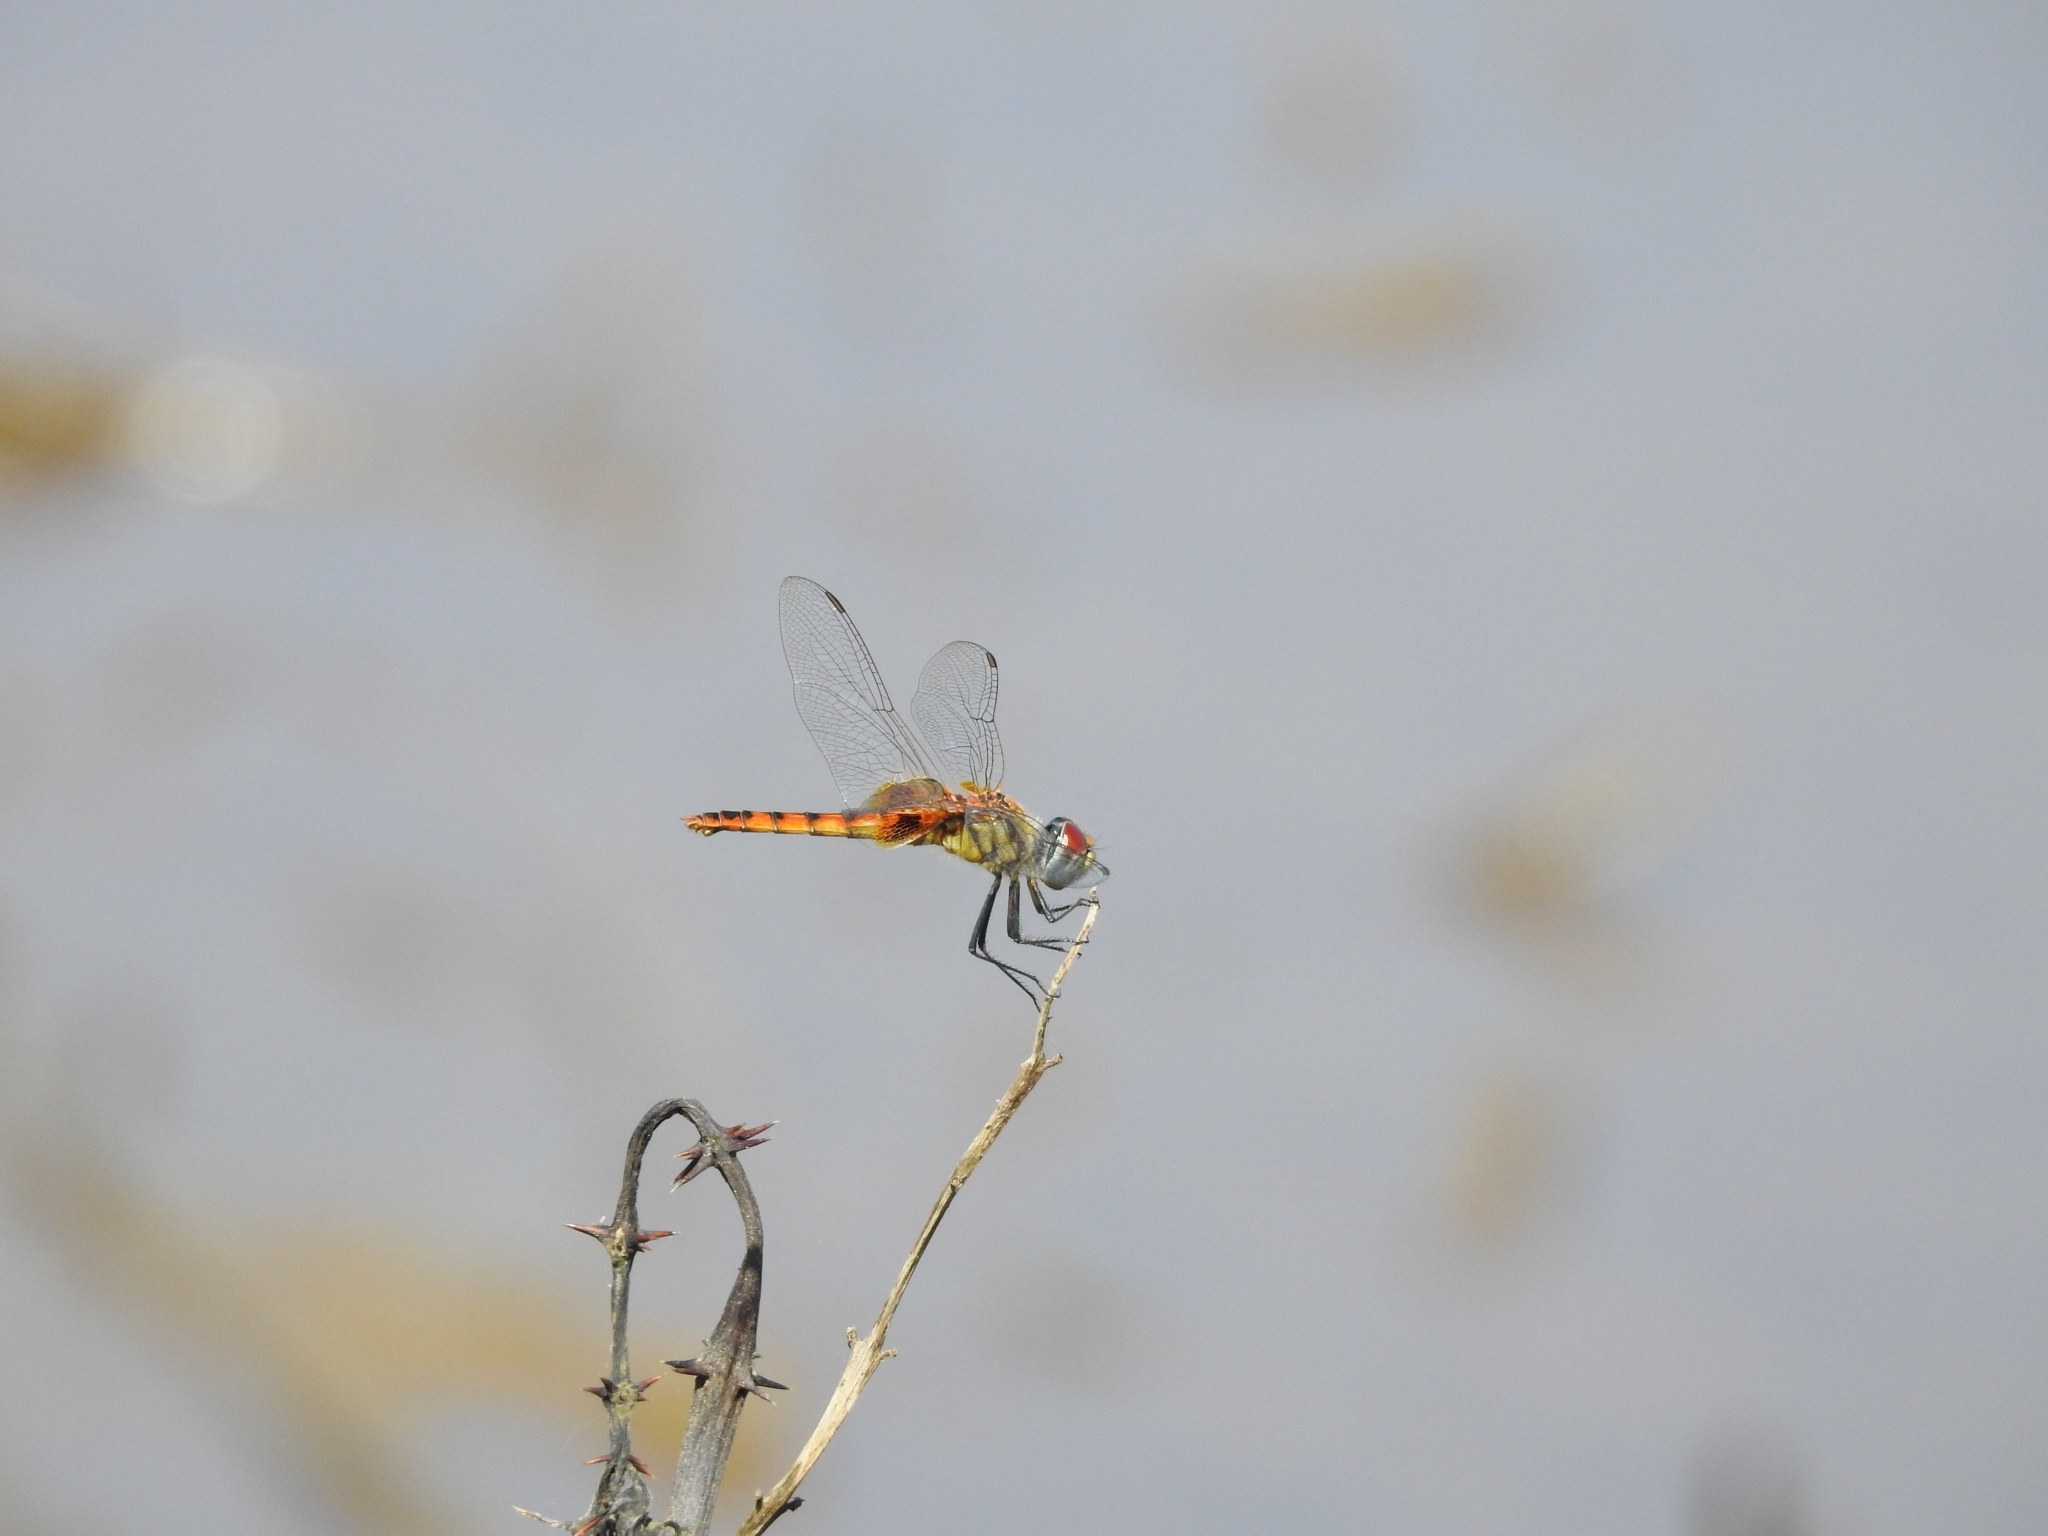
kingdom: Animalia
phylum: Arthropoda
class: Insecta
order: Odonata
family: Libellulidae
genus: Urothemis
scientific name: Urothemis signata
